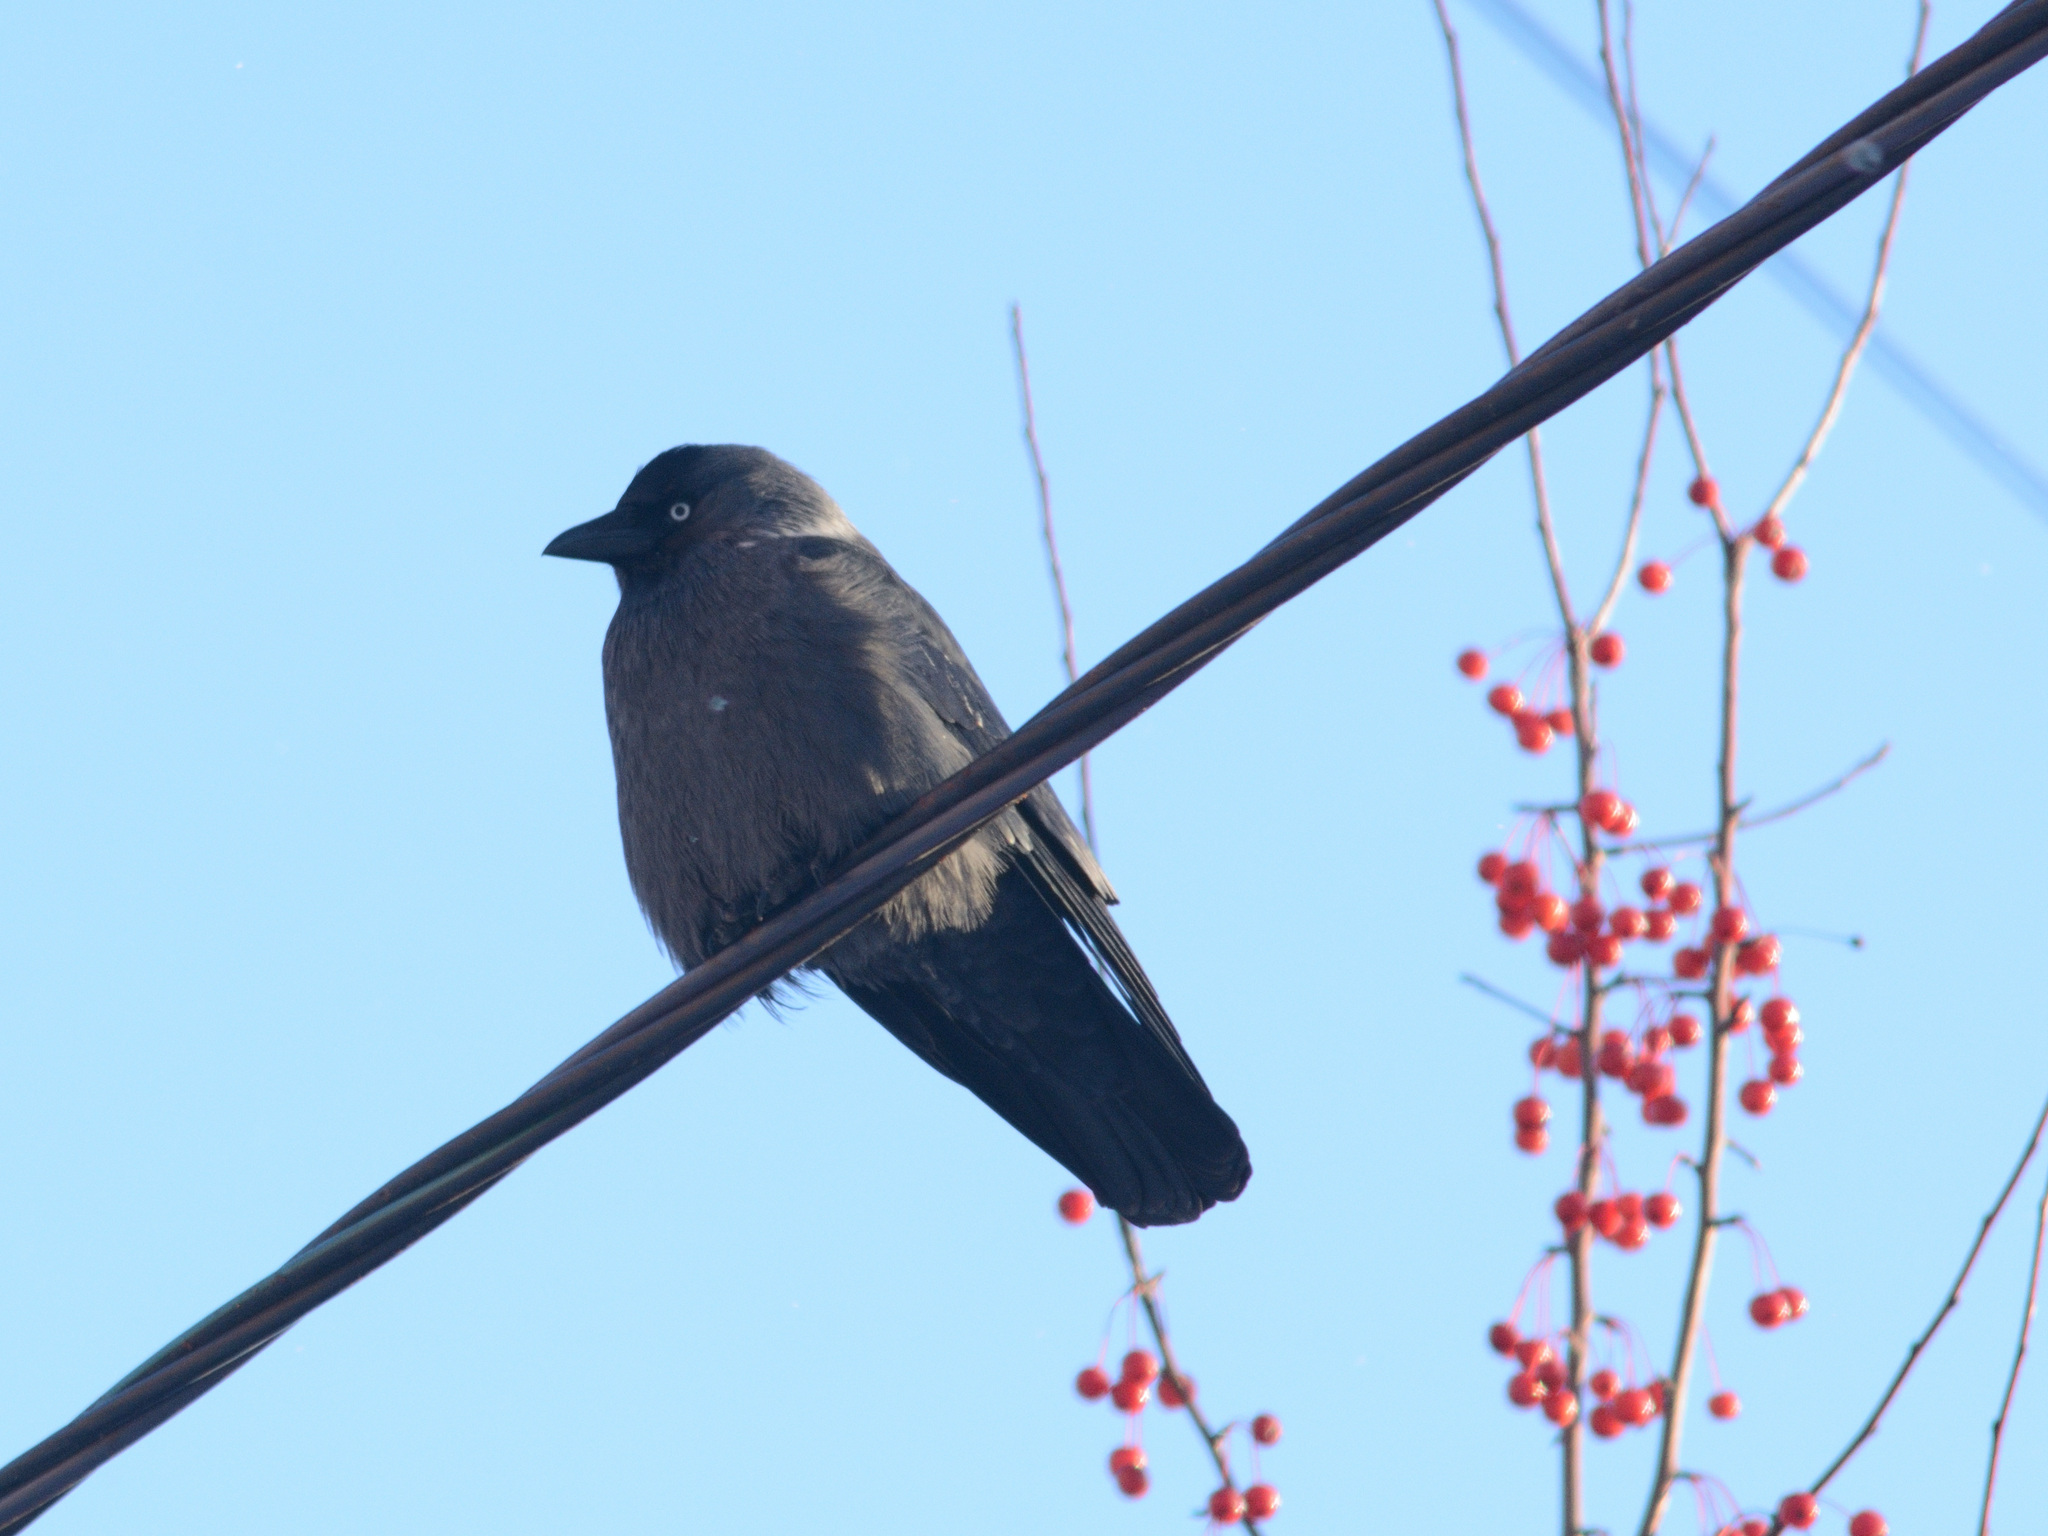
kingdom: Animalia
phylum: Chordata
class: Aves
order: Passeriformes
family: Corvidae
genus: Coloeus
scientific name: Coloeus monedula
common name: Western jackdaw
